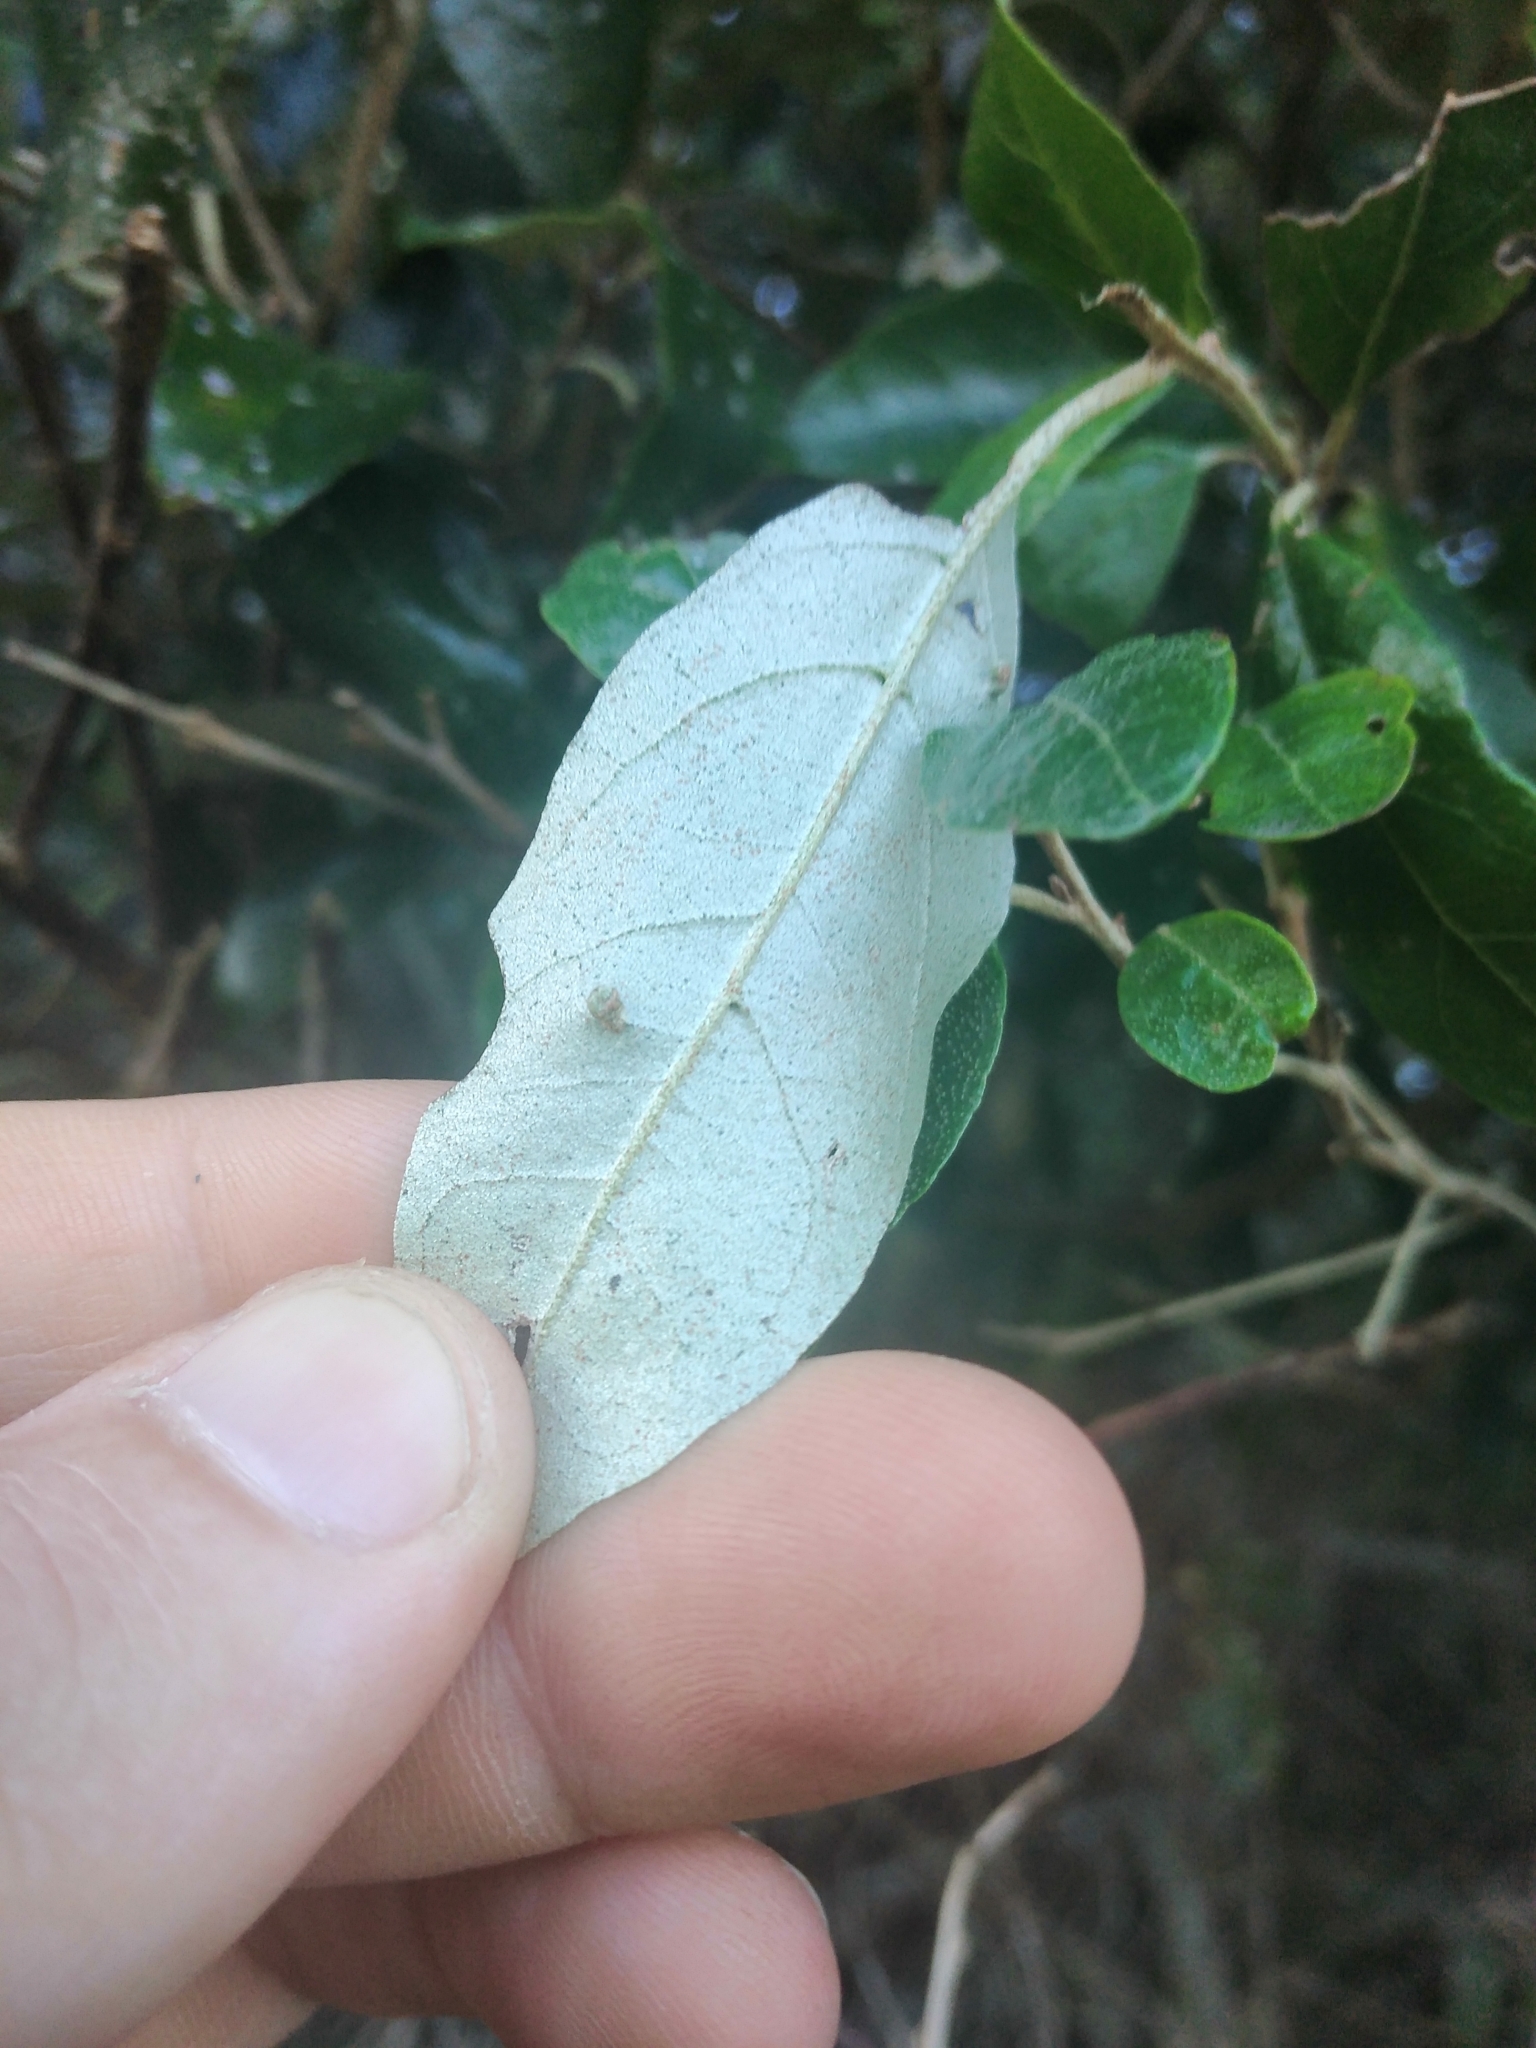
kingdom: Plantae
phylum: Tracheophyta
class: Magnoliopsida
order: Ericales
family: Styracaceae
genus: Styrax
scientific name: Styrax leprosus
